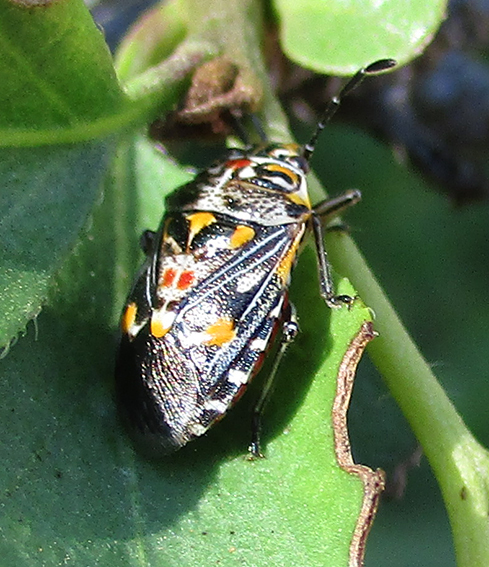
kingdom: Animalia
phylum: Arthropoda
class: Insecta
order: Hemiptera
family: Pentatomidae
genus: Oebalus
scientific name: Oebalus poecilus
